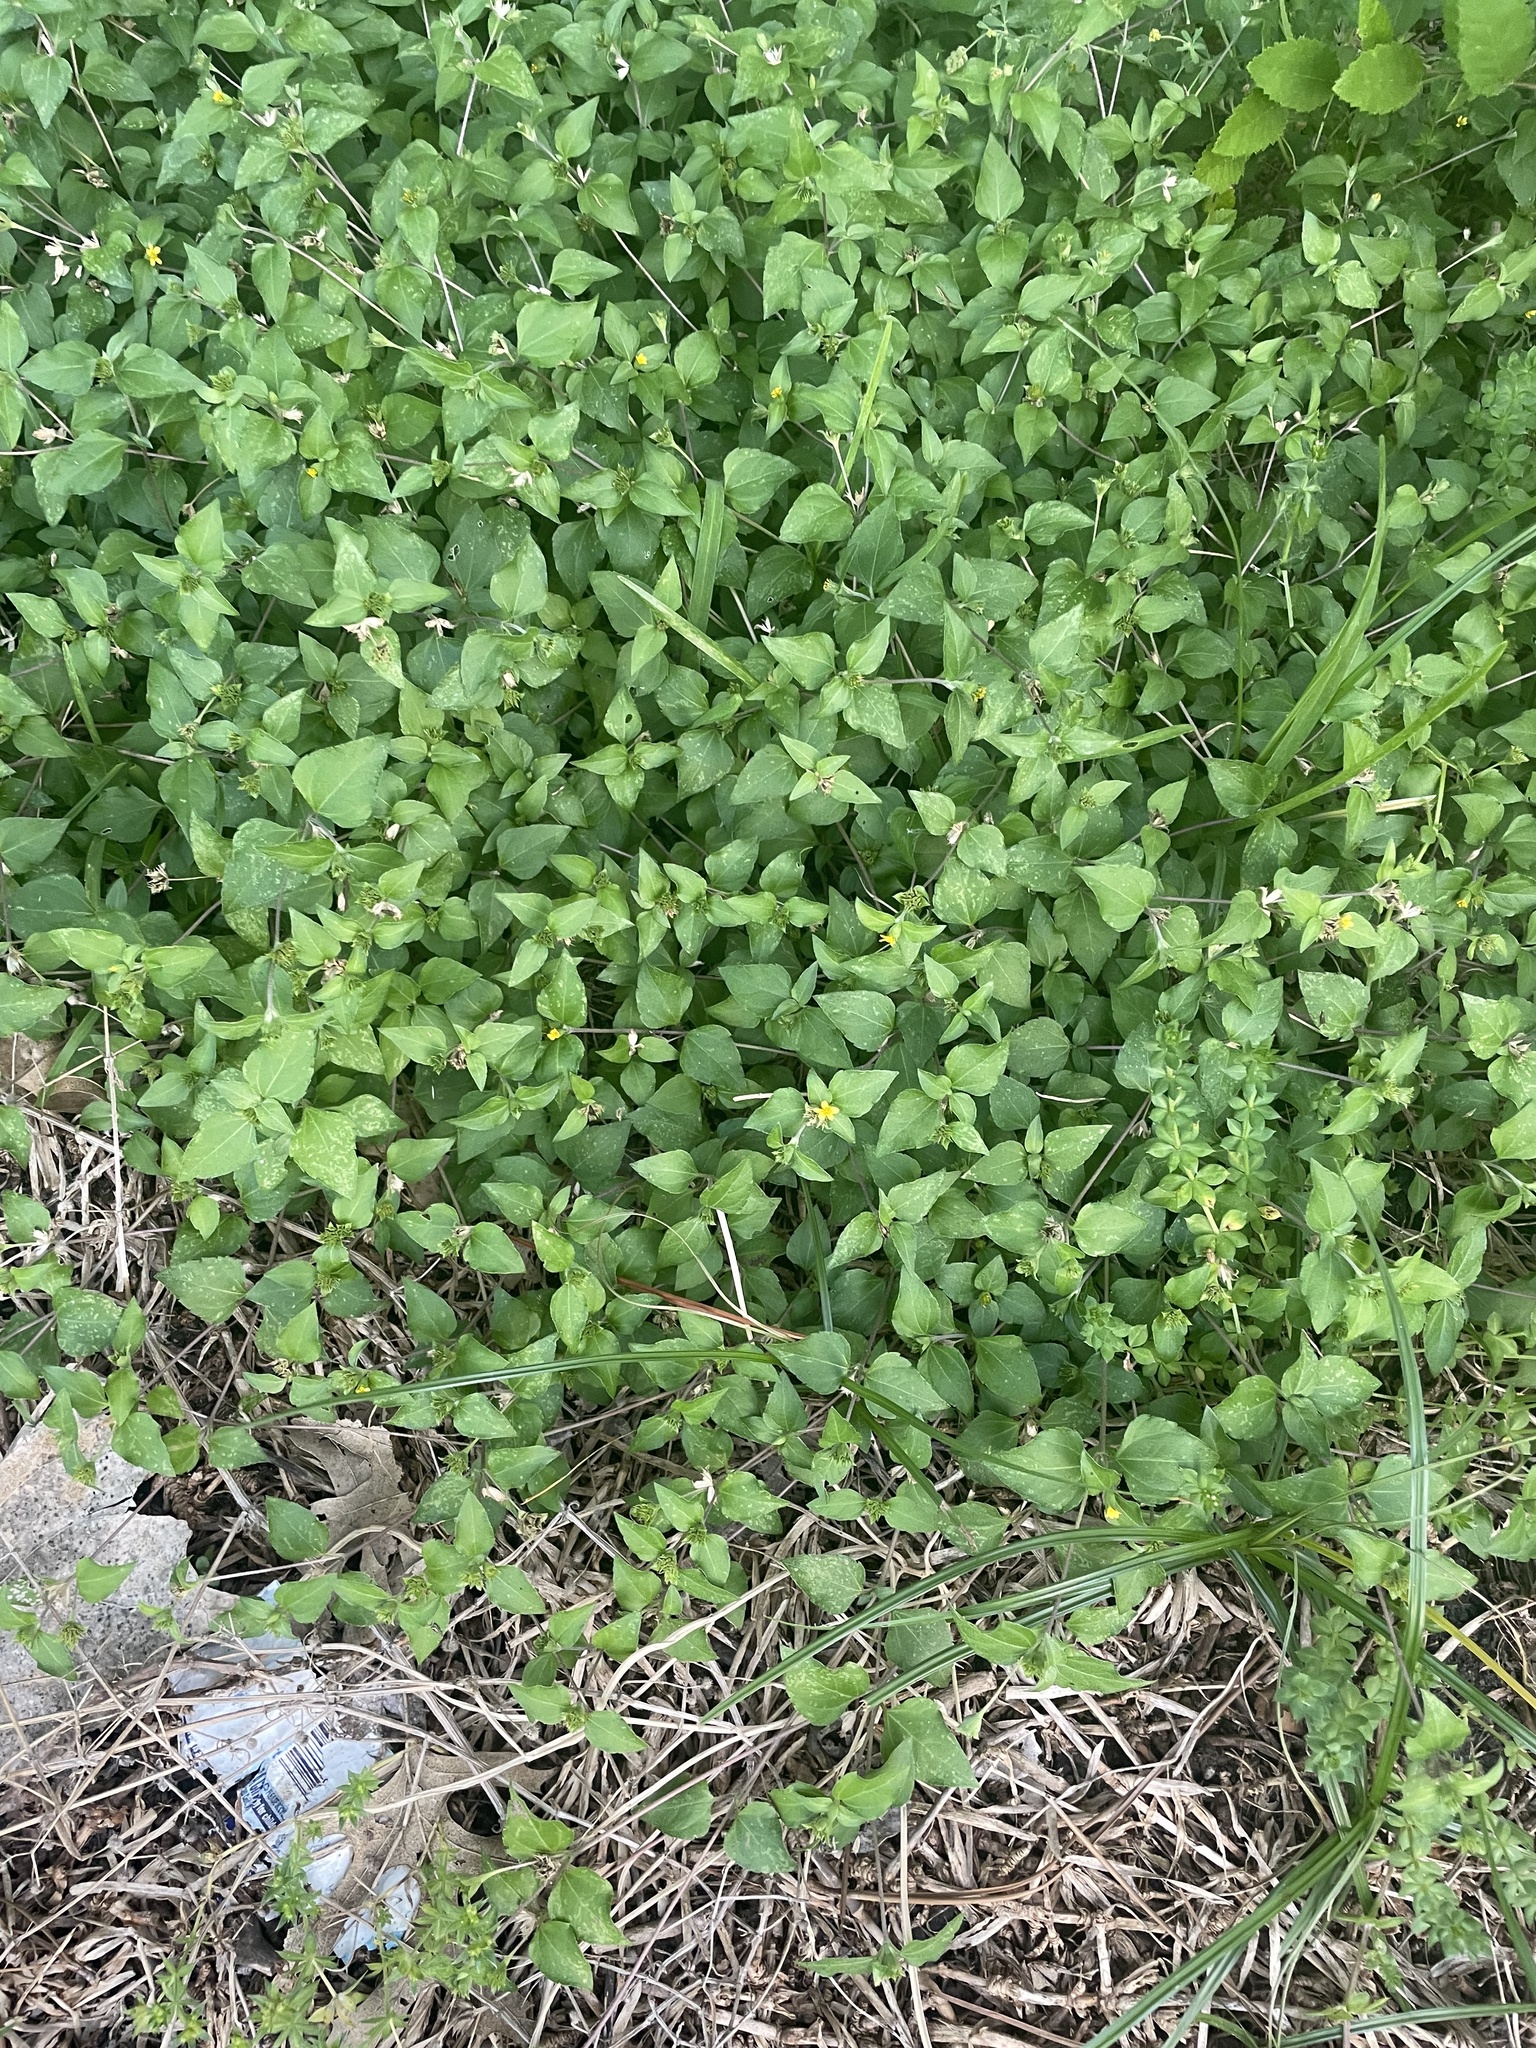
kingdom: Plantae
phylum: Tracheophyta
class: Magnoliopsida
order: Asterales
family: Asteraceae
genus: Calyptocarpus
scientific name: Calyptocarpus vialis
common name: Straggler daisy
